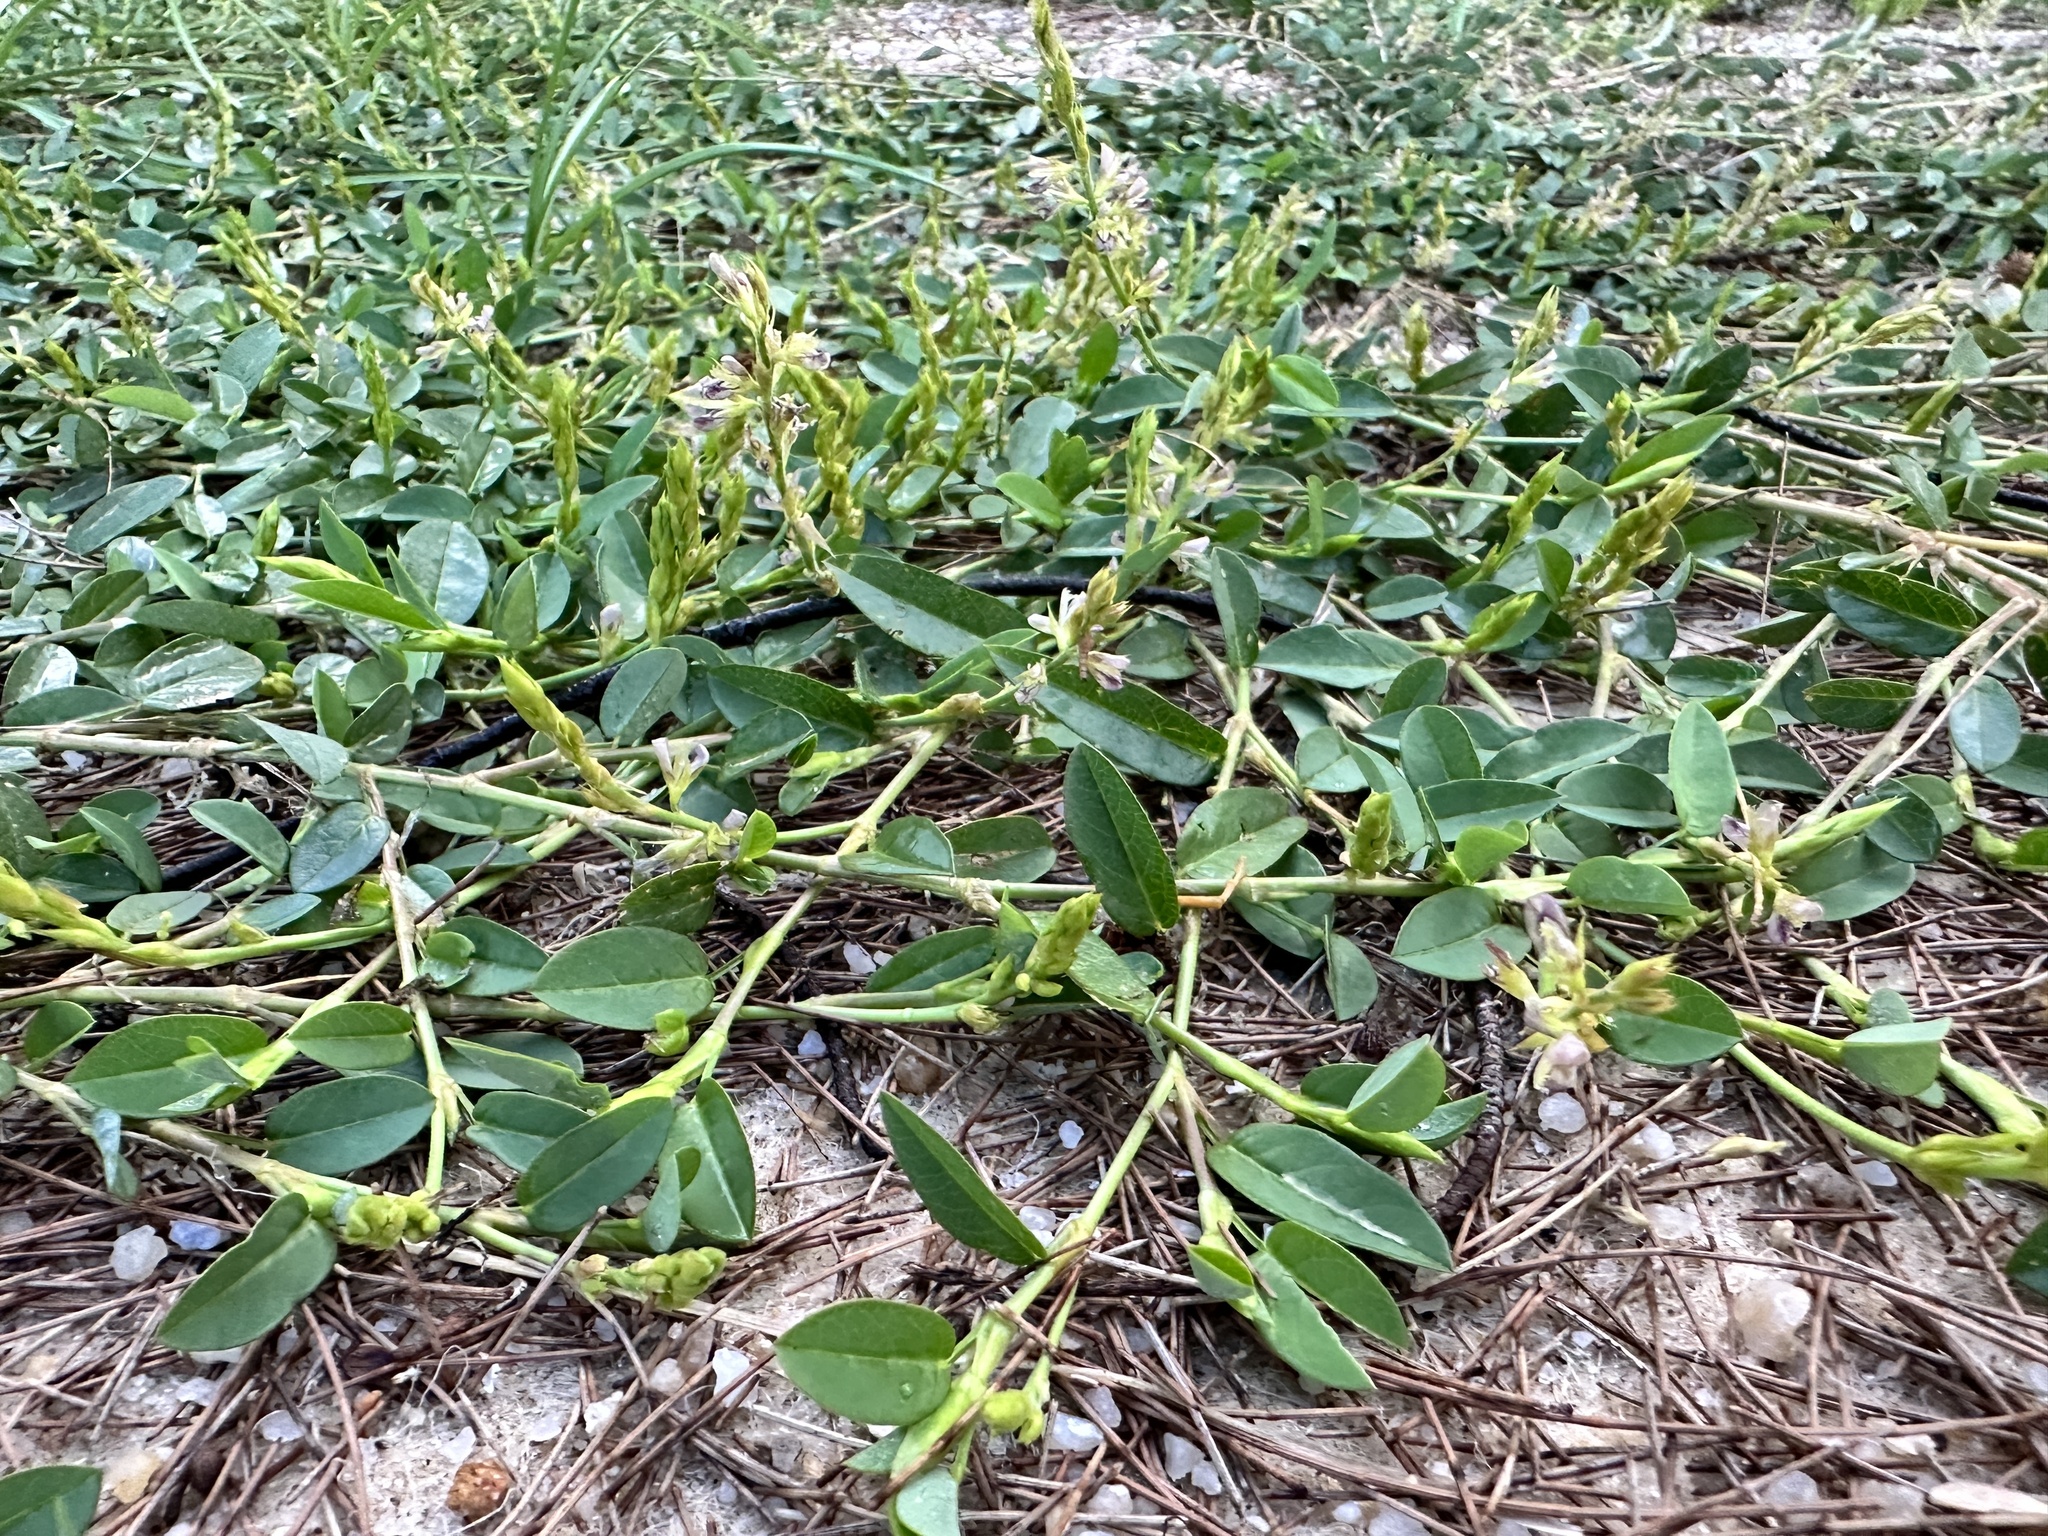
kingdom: Plantae
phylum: Tracheophyta
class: Magnoliopsida
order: Fabales
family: Fabaceae
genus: Alysicarpus
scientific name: Alysicarpus vaginalis
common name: White moneywort
